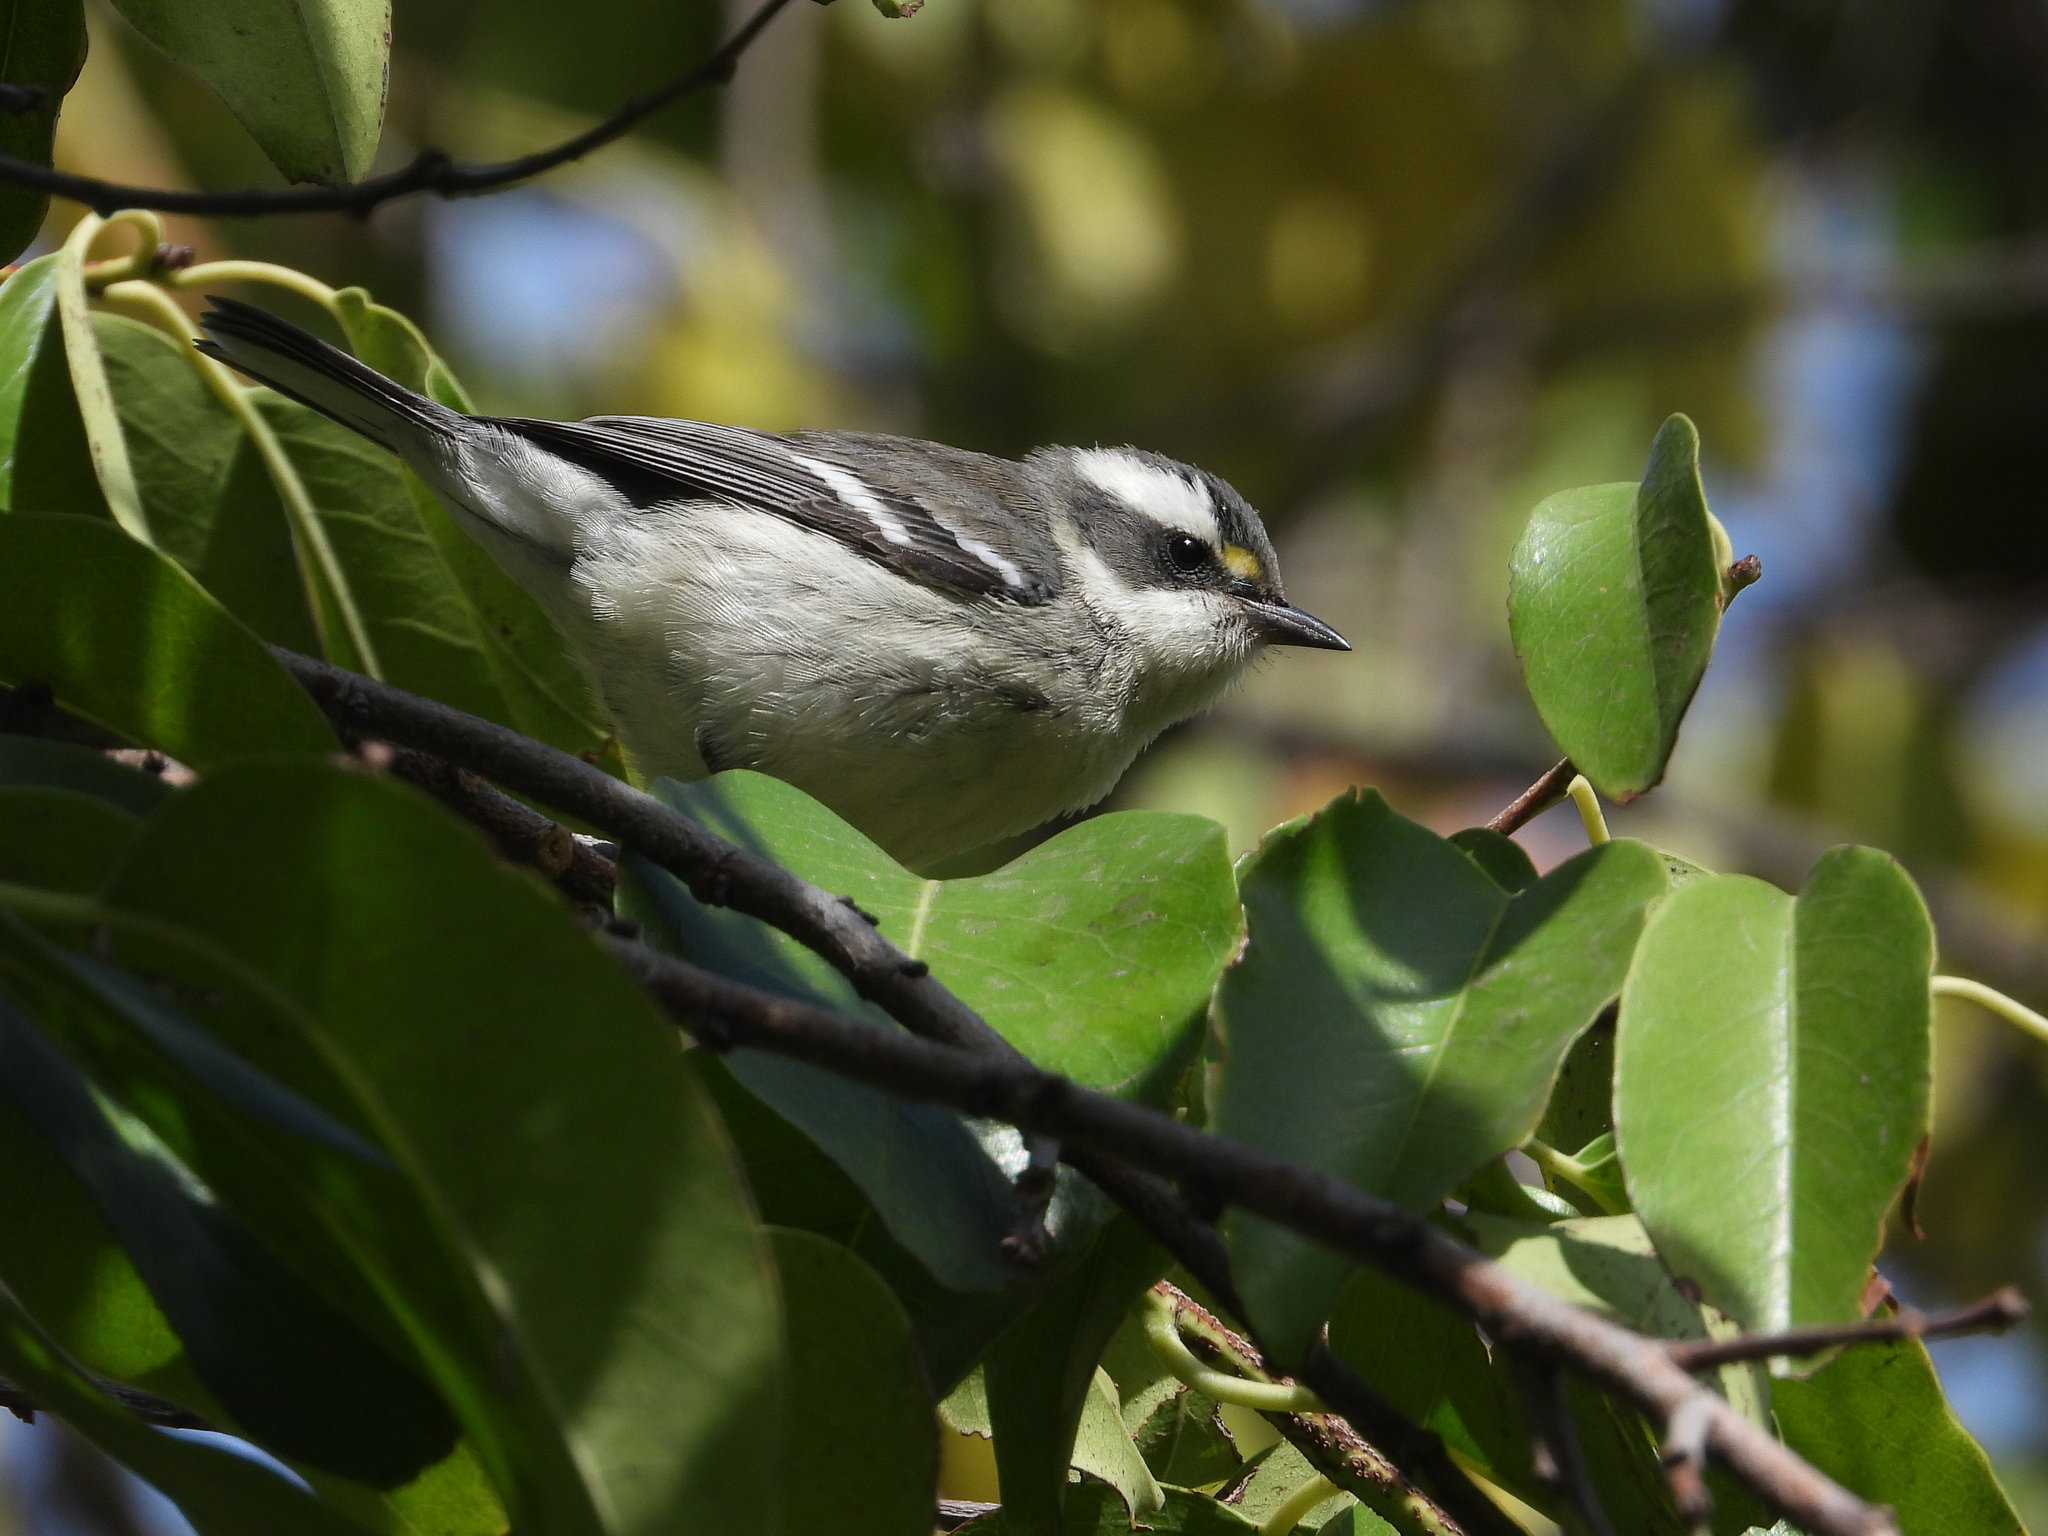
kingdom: Animalia
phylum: Chordata
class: Aves
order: Passeriformes
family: Parulidae
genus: Setophaga
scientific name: Setophaga nigrescens
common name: Black-throated gray warbler
